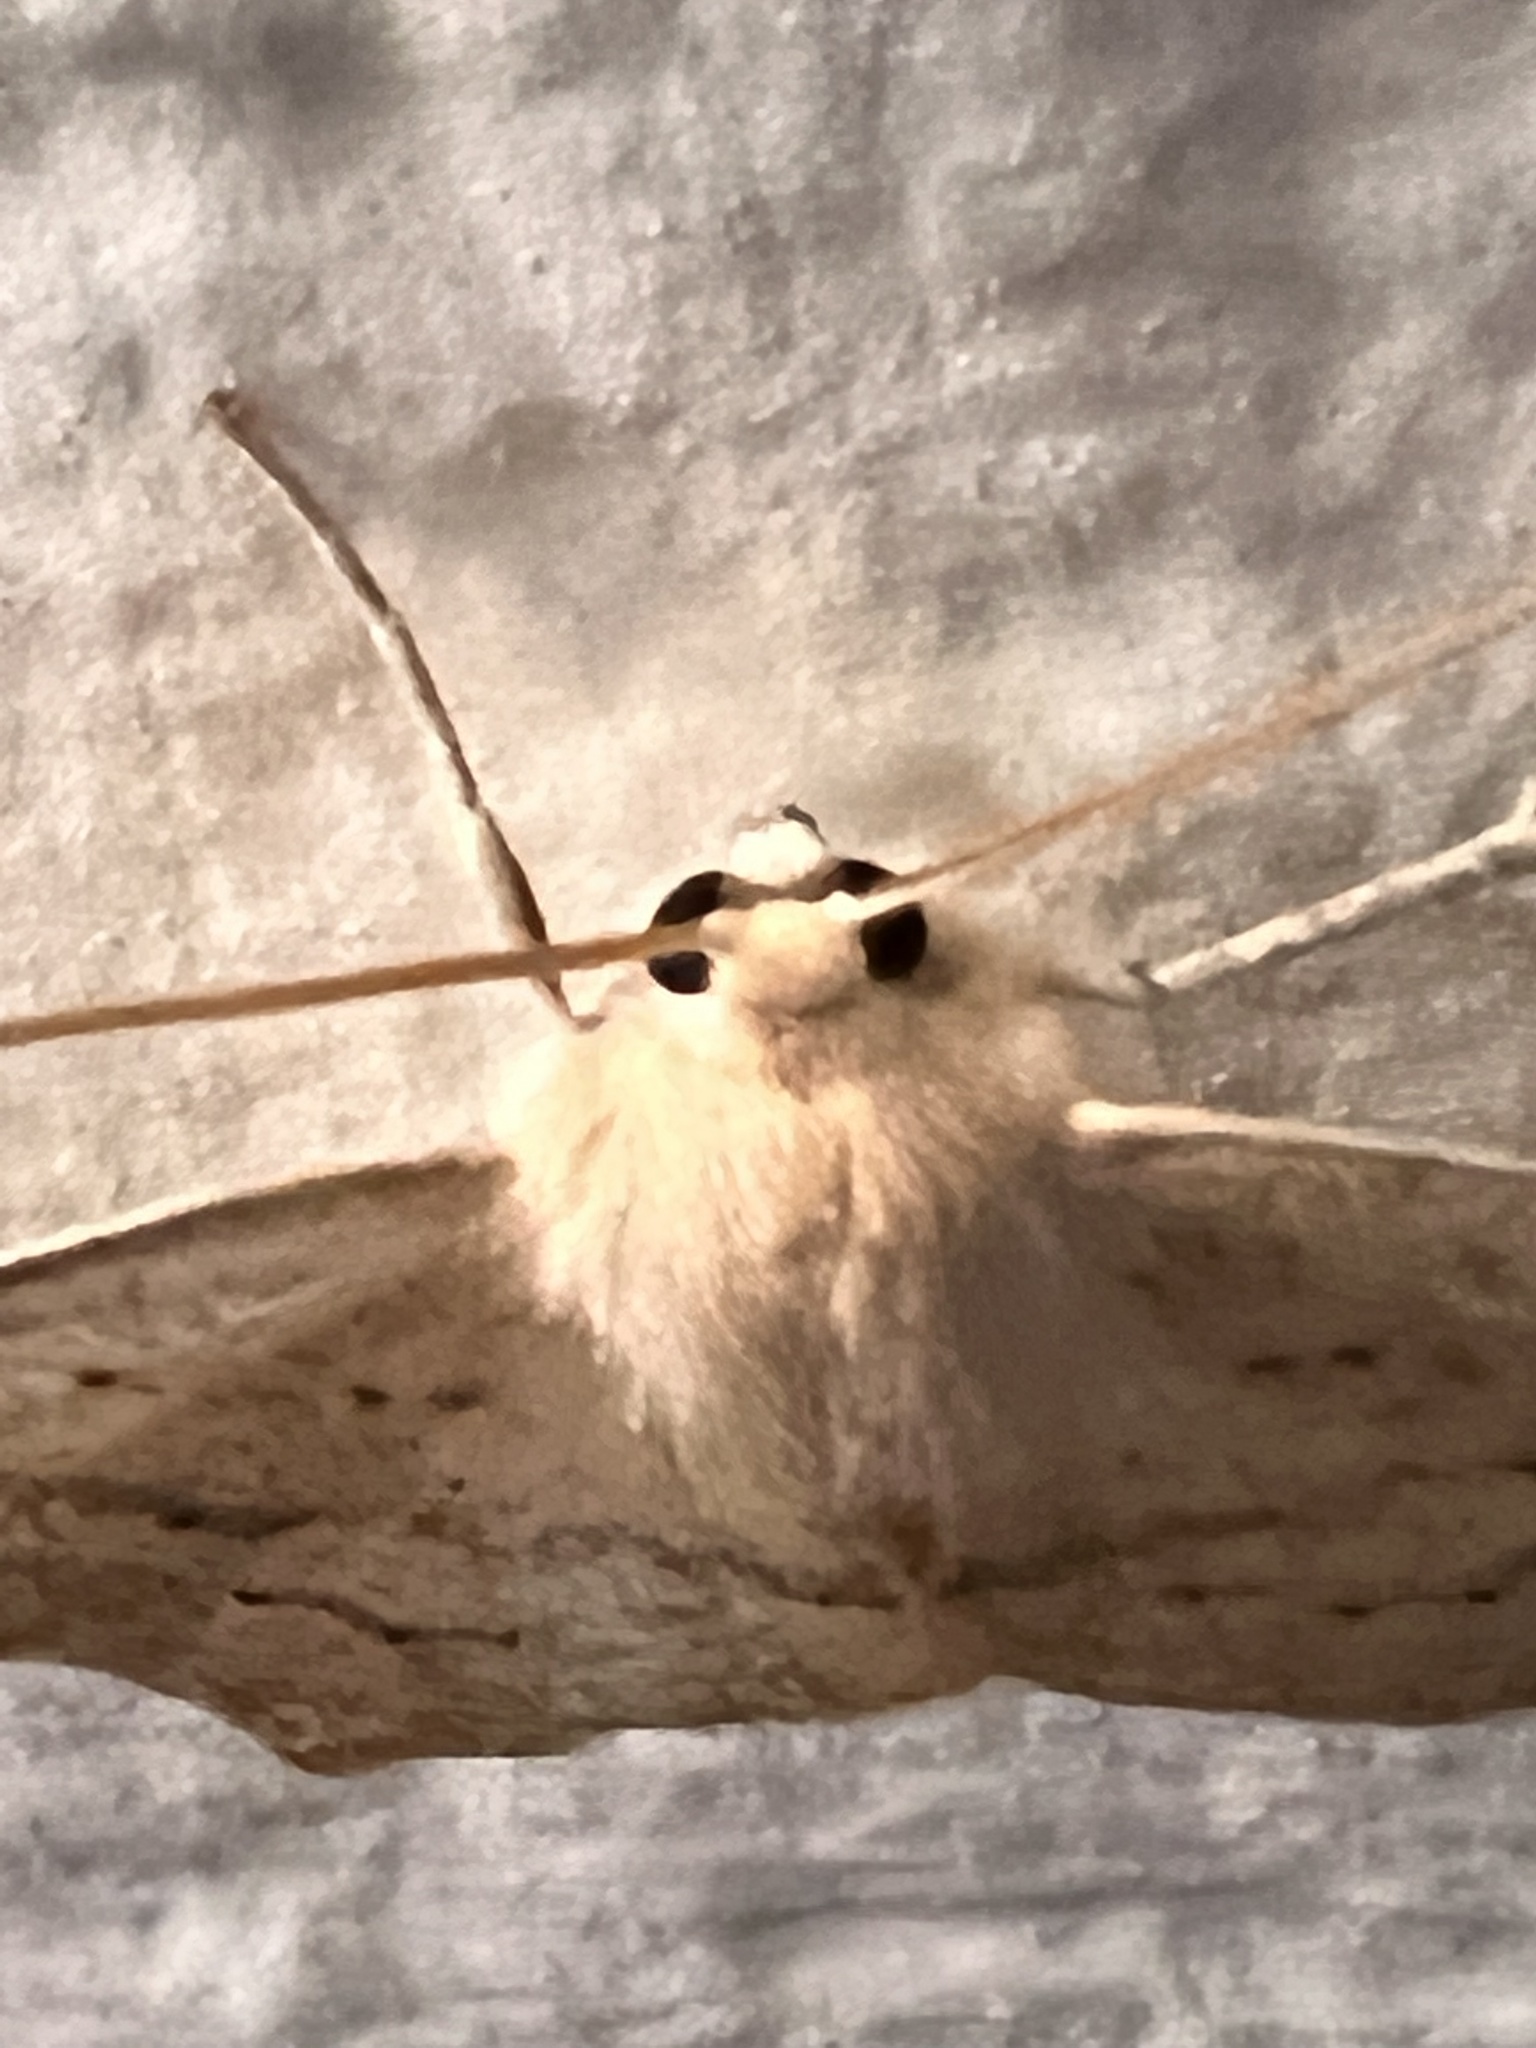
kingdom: Animalia
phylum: Arthropoda
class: Insecta
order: Lepidoptera
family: Geometridae
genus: Sabulodes
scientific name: Sabulodes aegrotata
